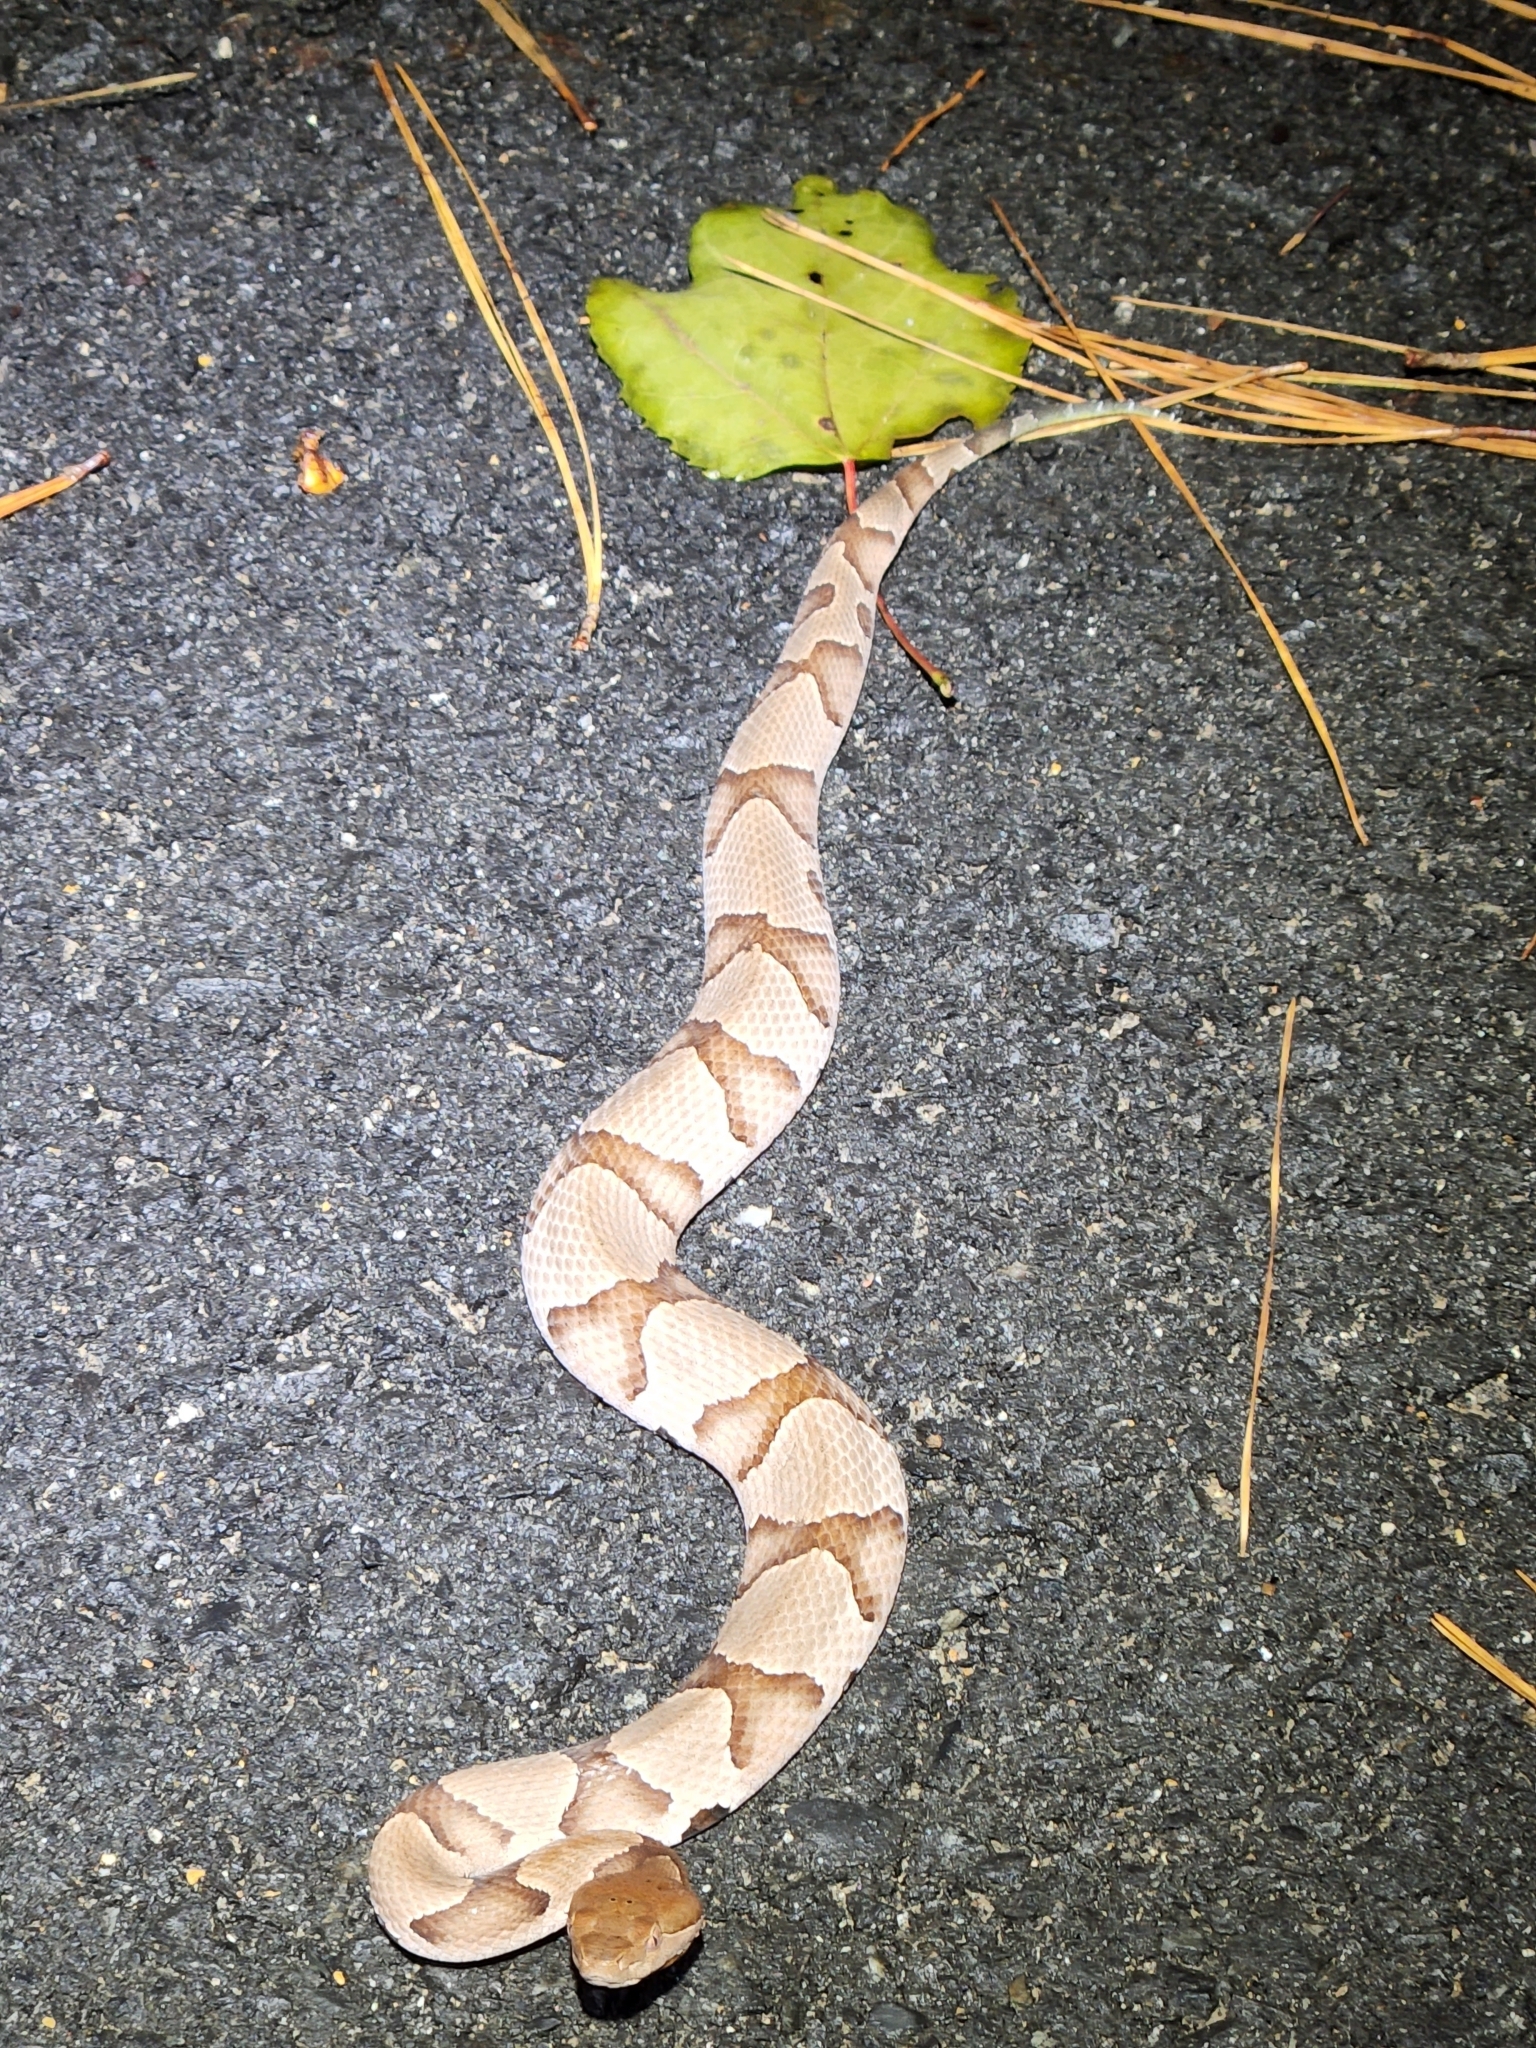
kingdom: Animalia
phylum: Chordata
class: Squamata
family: Viperidae
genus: Agkistrodon
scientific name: Agkistrodon contortrix
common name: Northern copperhead
